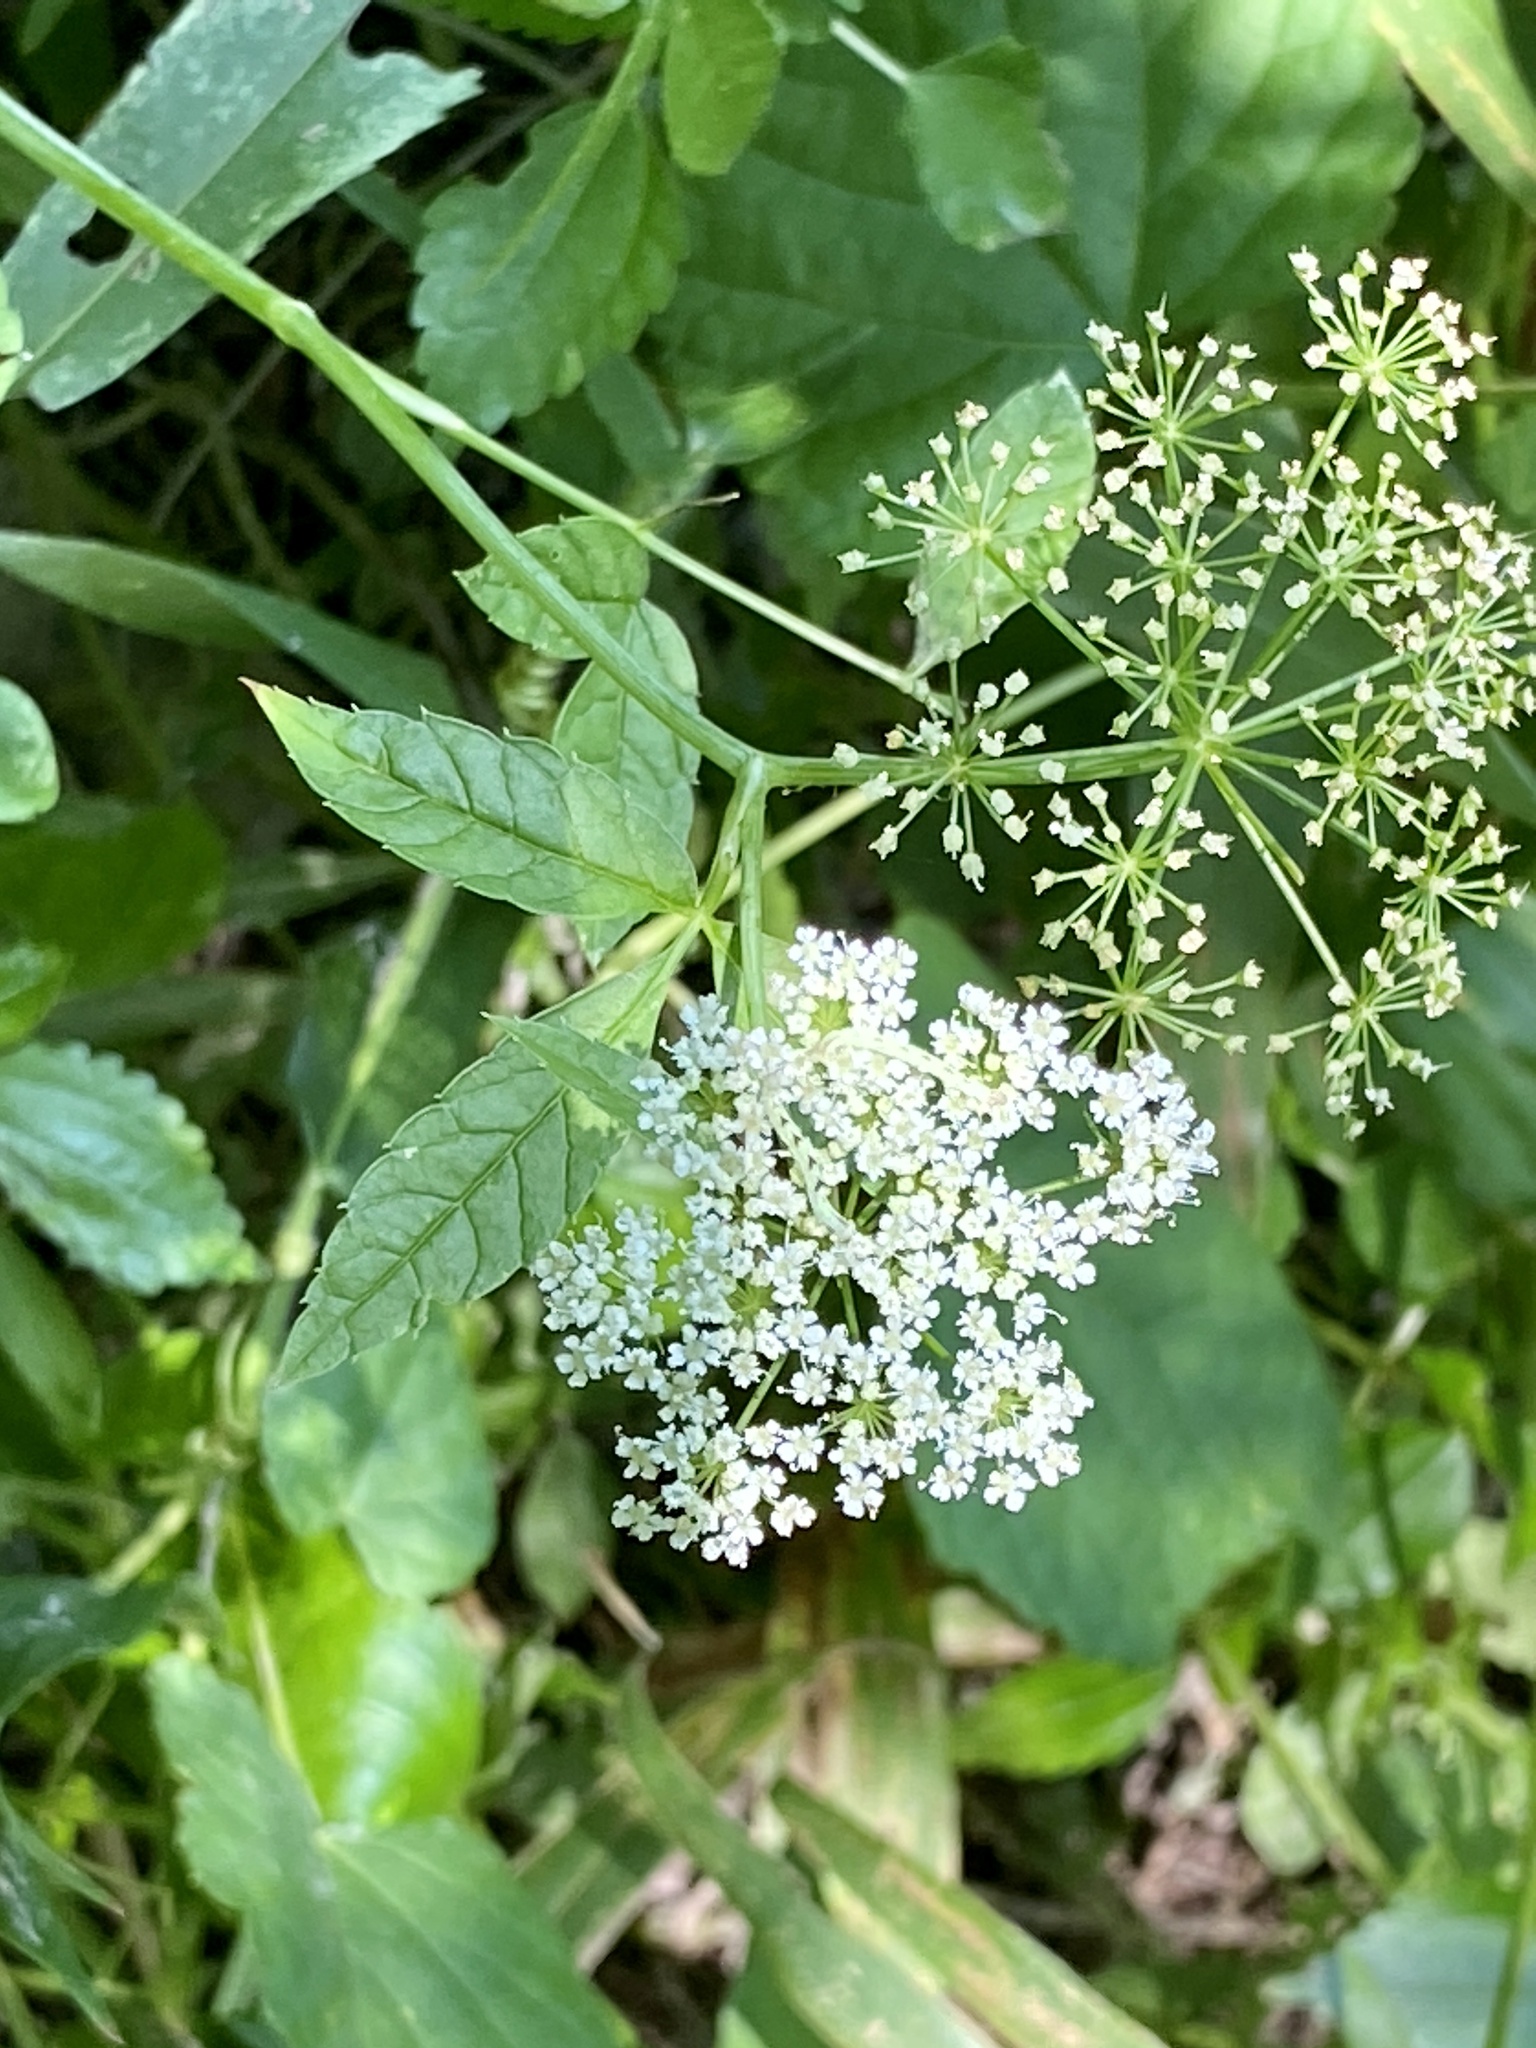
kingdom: Plantae
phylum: Tracheophyta
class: Magnoliopsida
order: Apiales
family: Apiaceae
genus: Cicuta
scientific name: Cicuta maculata
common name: Spotted cowbane
